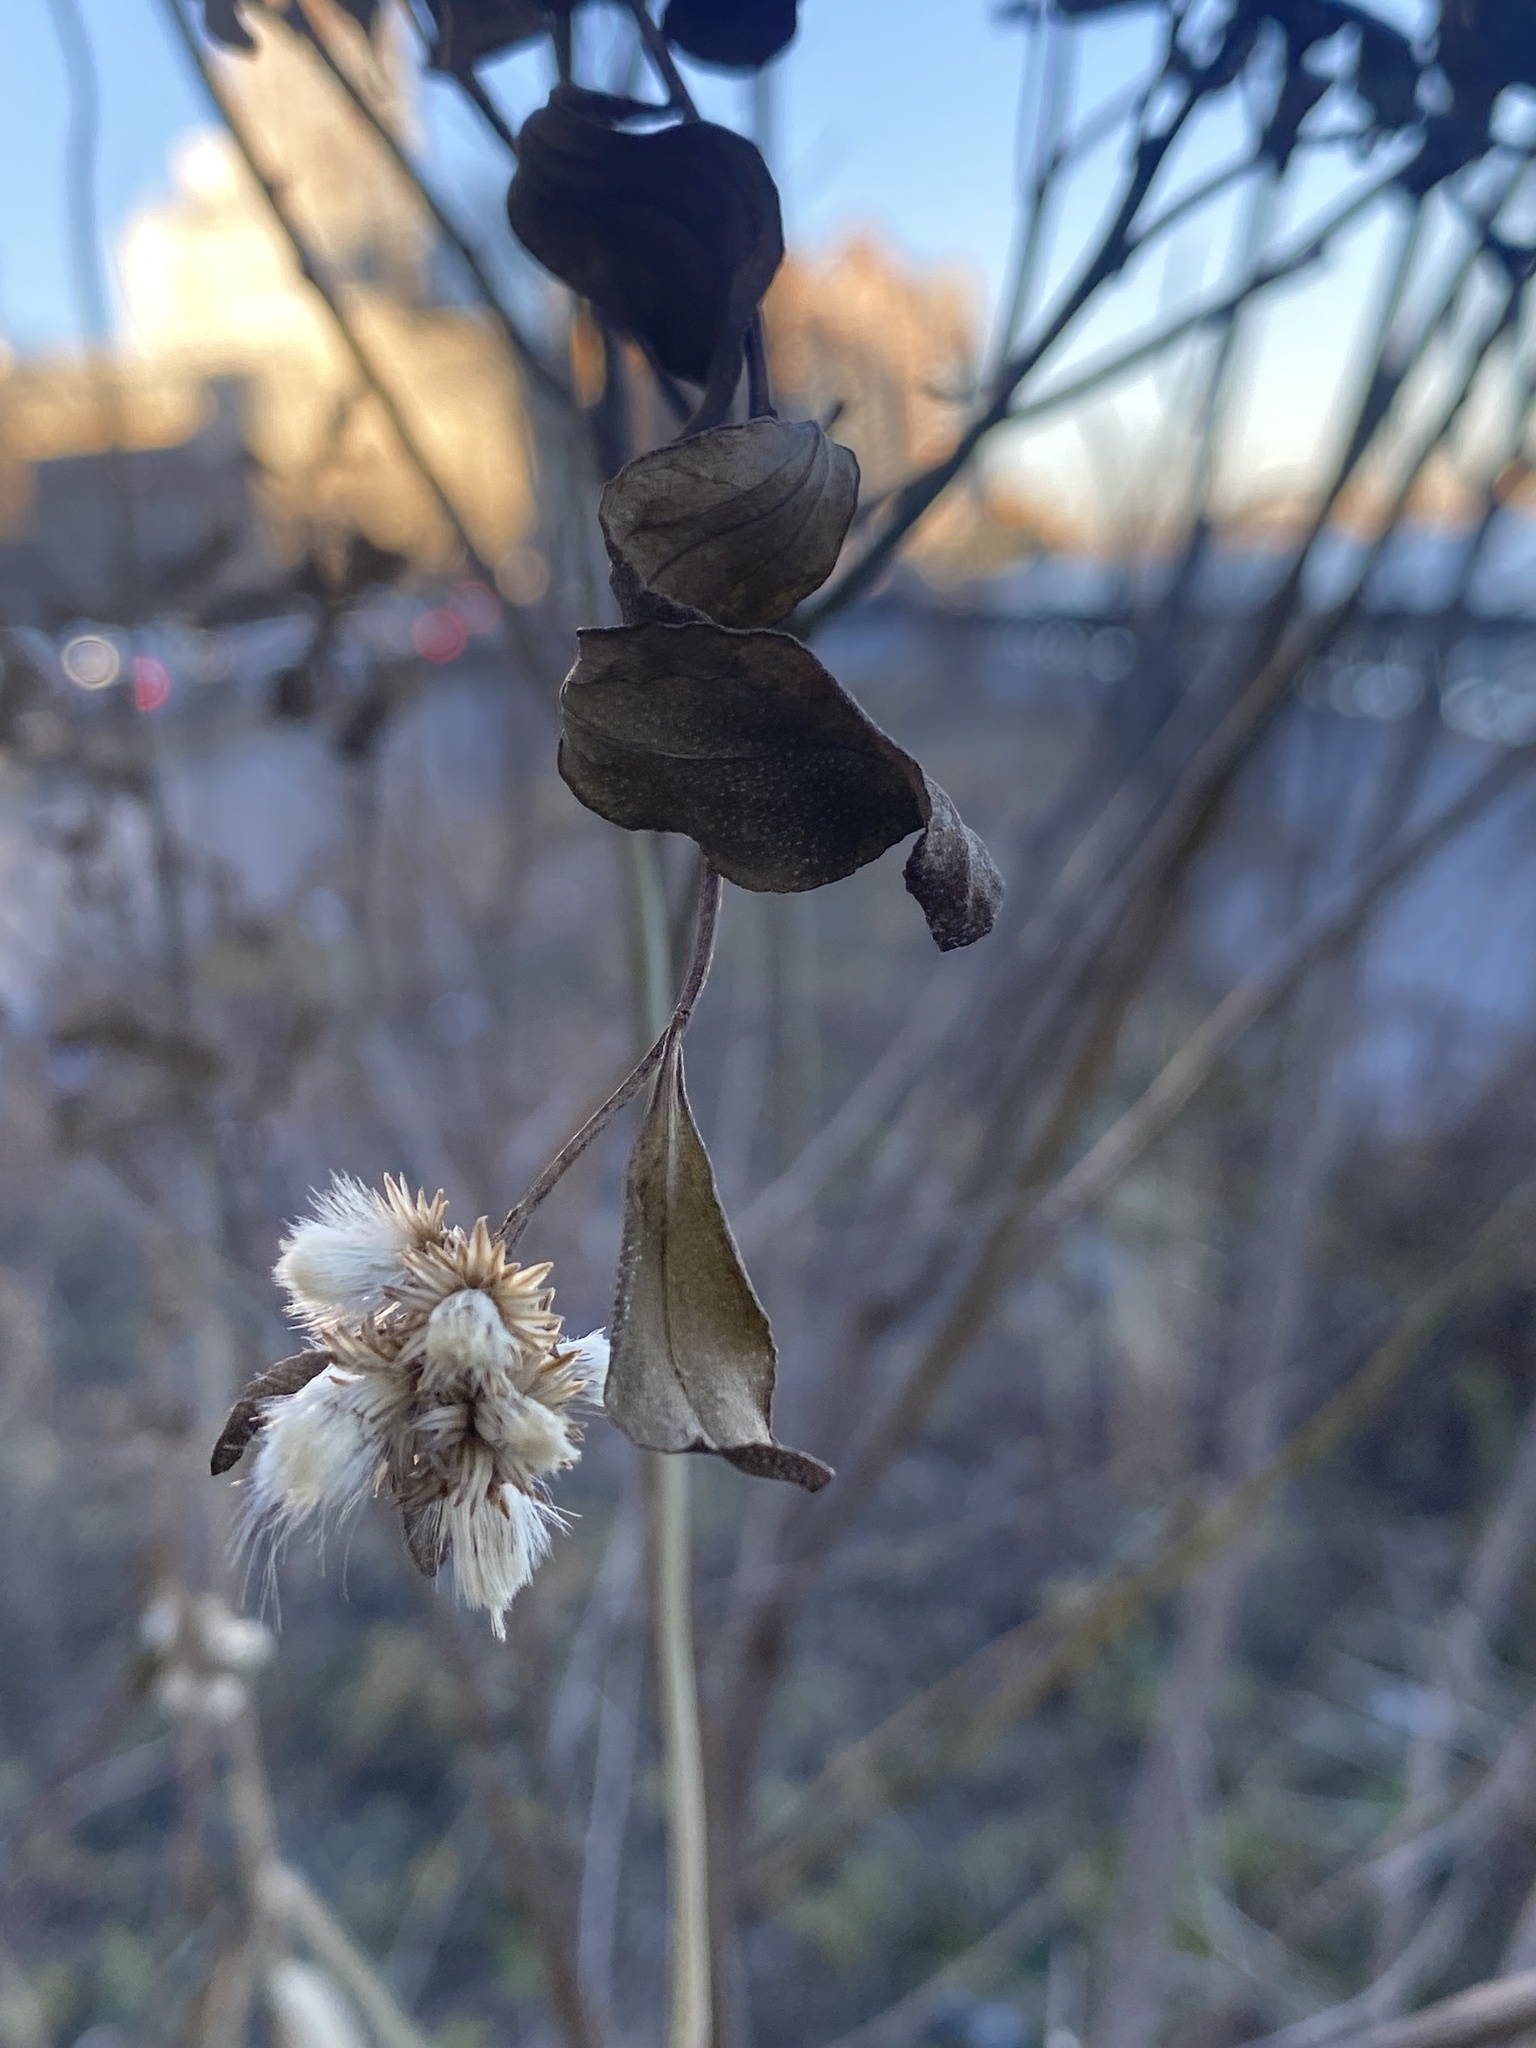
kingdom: Plantae
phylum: Tracheophyta
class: Magnoliopsida
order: Asterales
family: Asteraceae
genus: Baccharis
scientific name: Baccharis halimifolia
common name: Eastern baccharis
